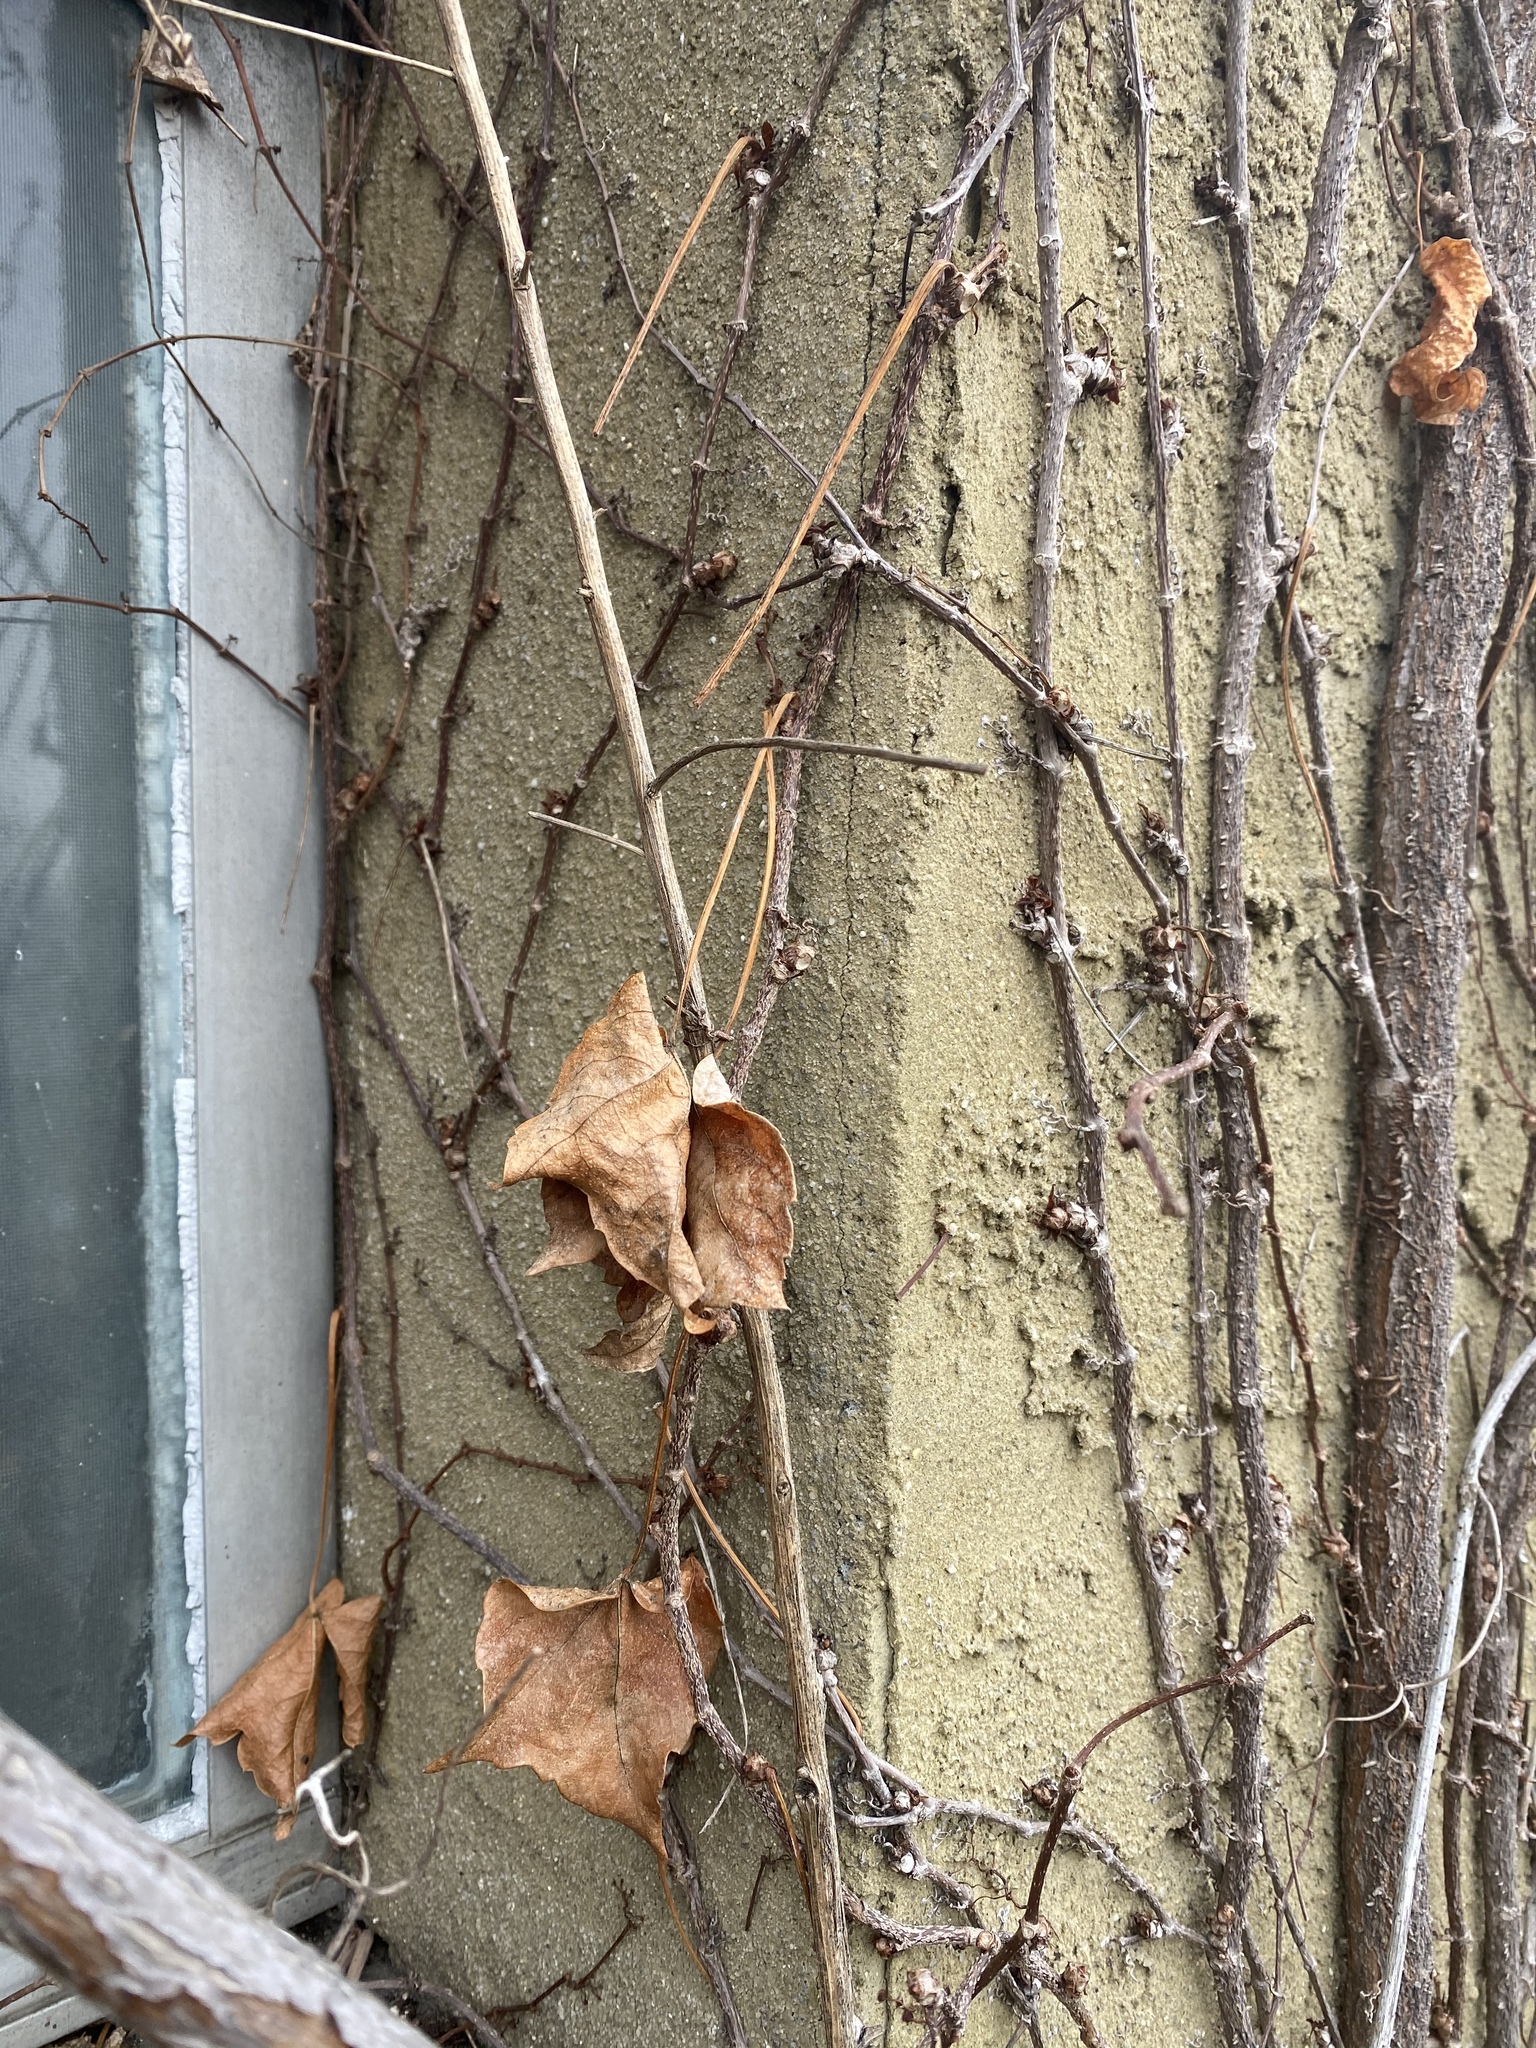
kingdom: Plantae
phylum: Tracheophyta
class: Magnoliopsida
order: Vitales
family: Vitaceae
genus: Parthenocissus
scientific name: Parthenocissus tricuspidata
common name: Boston ivy
